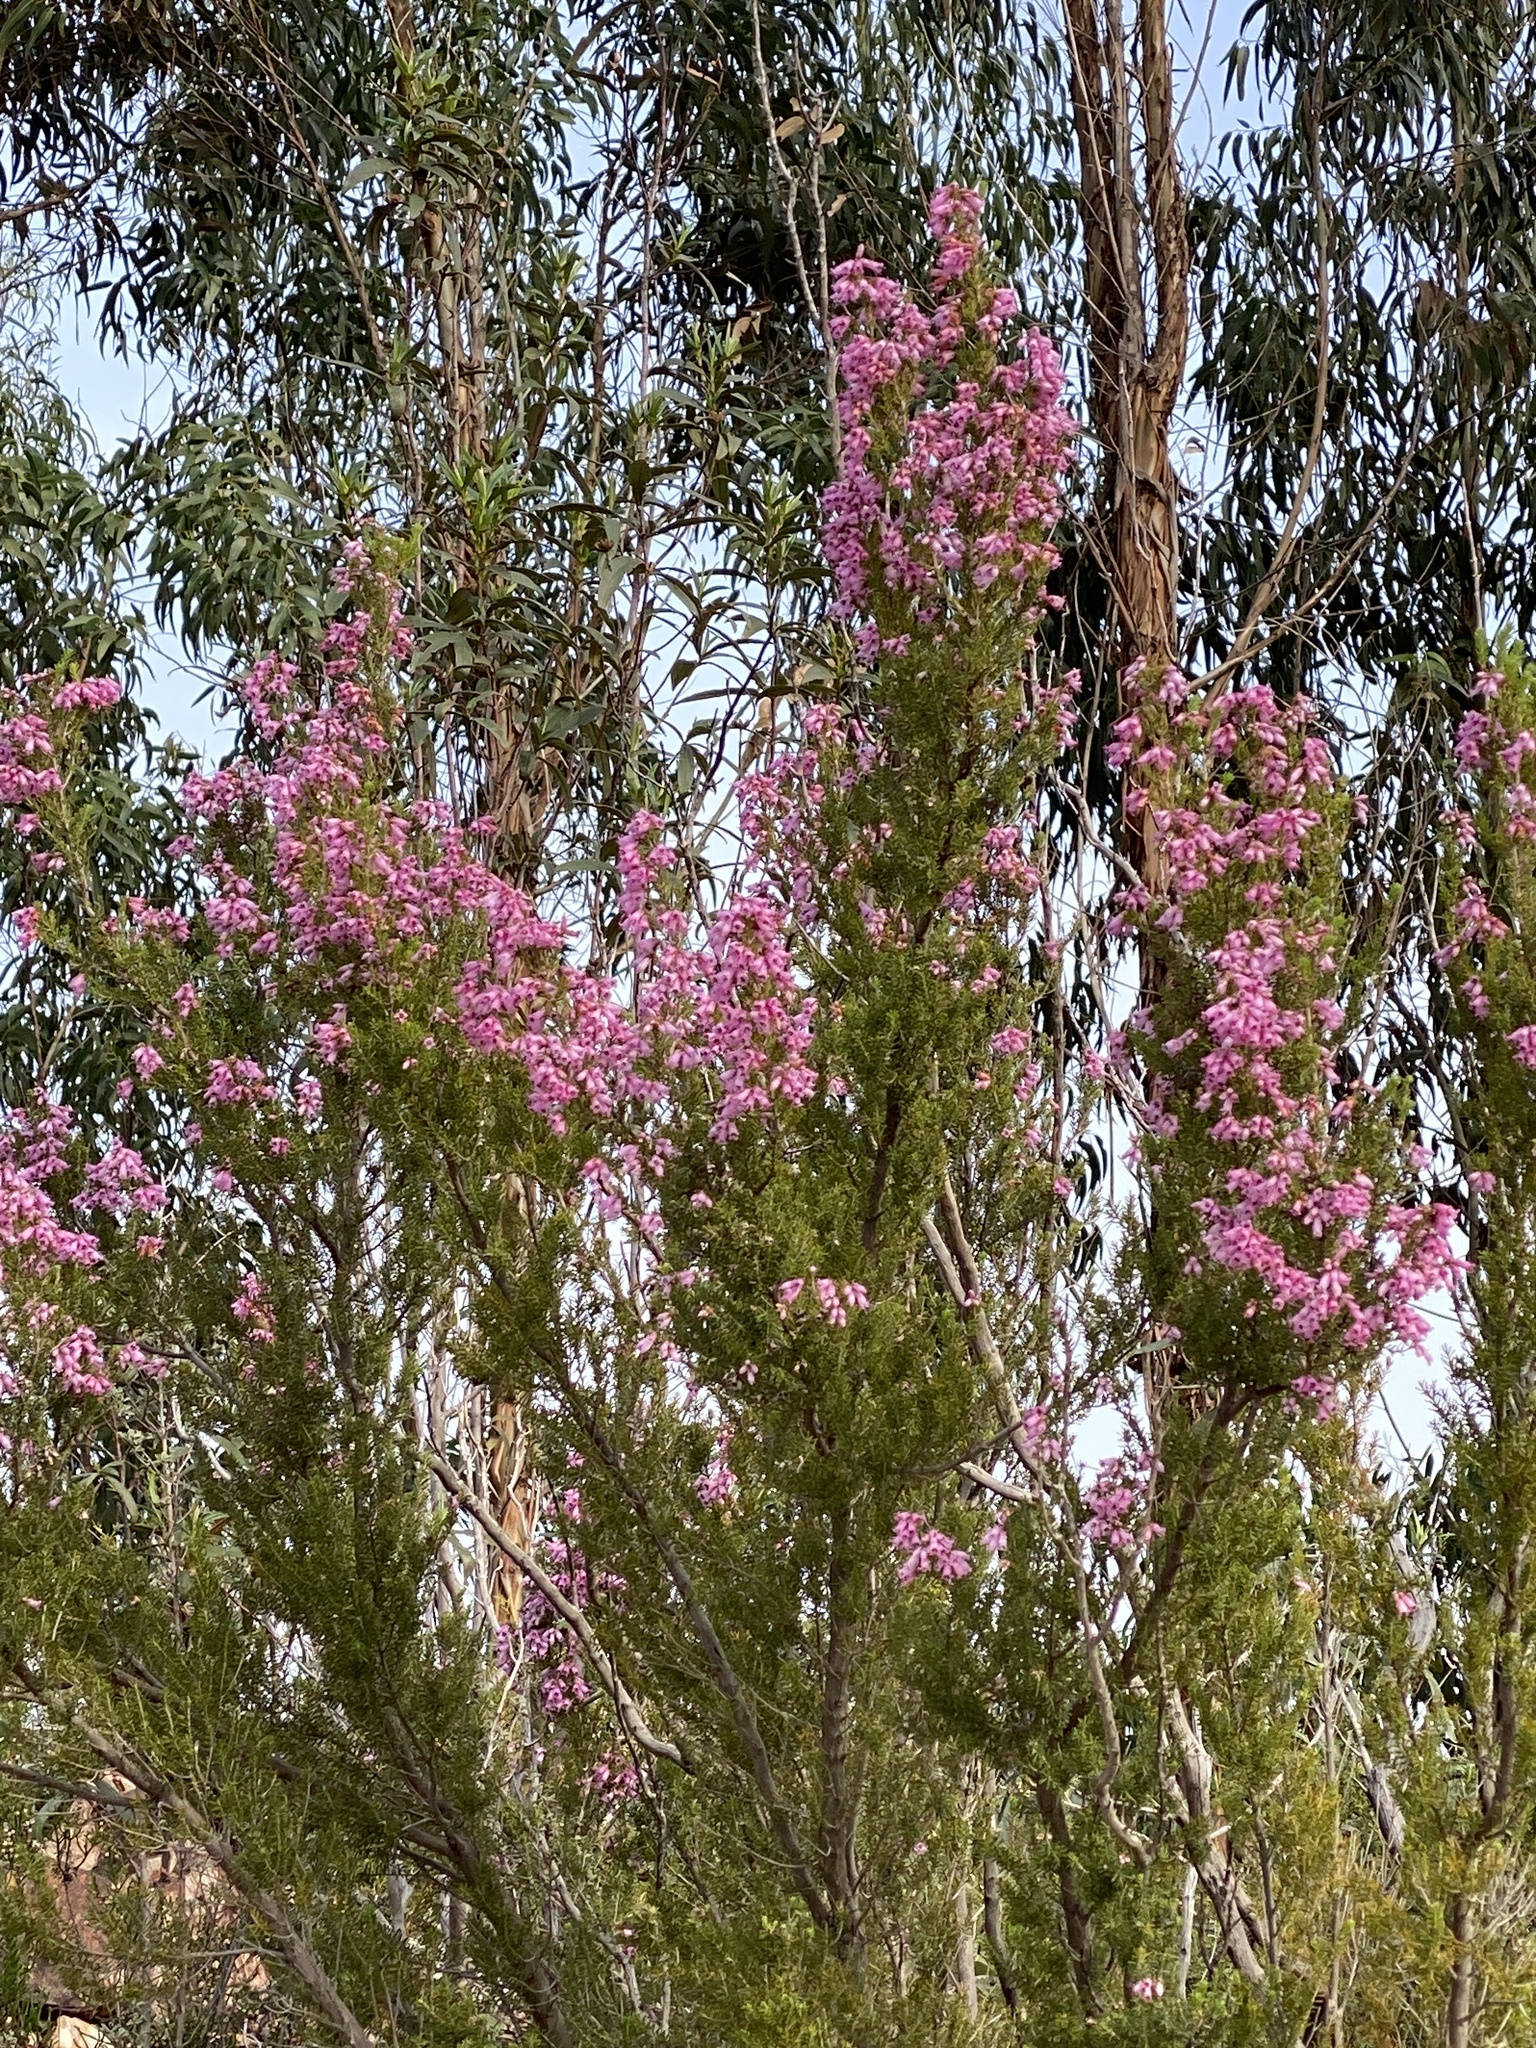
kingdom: Plantae
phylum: Tracheophyta
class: Magnoliopsida
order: Ericales
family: Ericaceae
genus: Erica
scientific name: Erica australis
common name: Spanish heath
